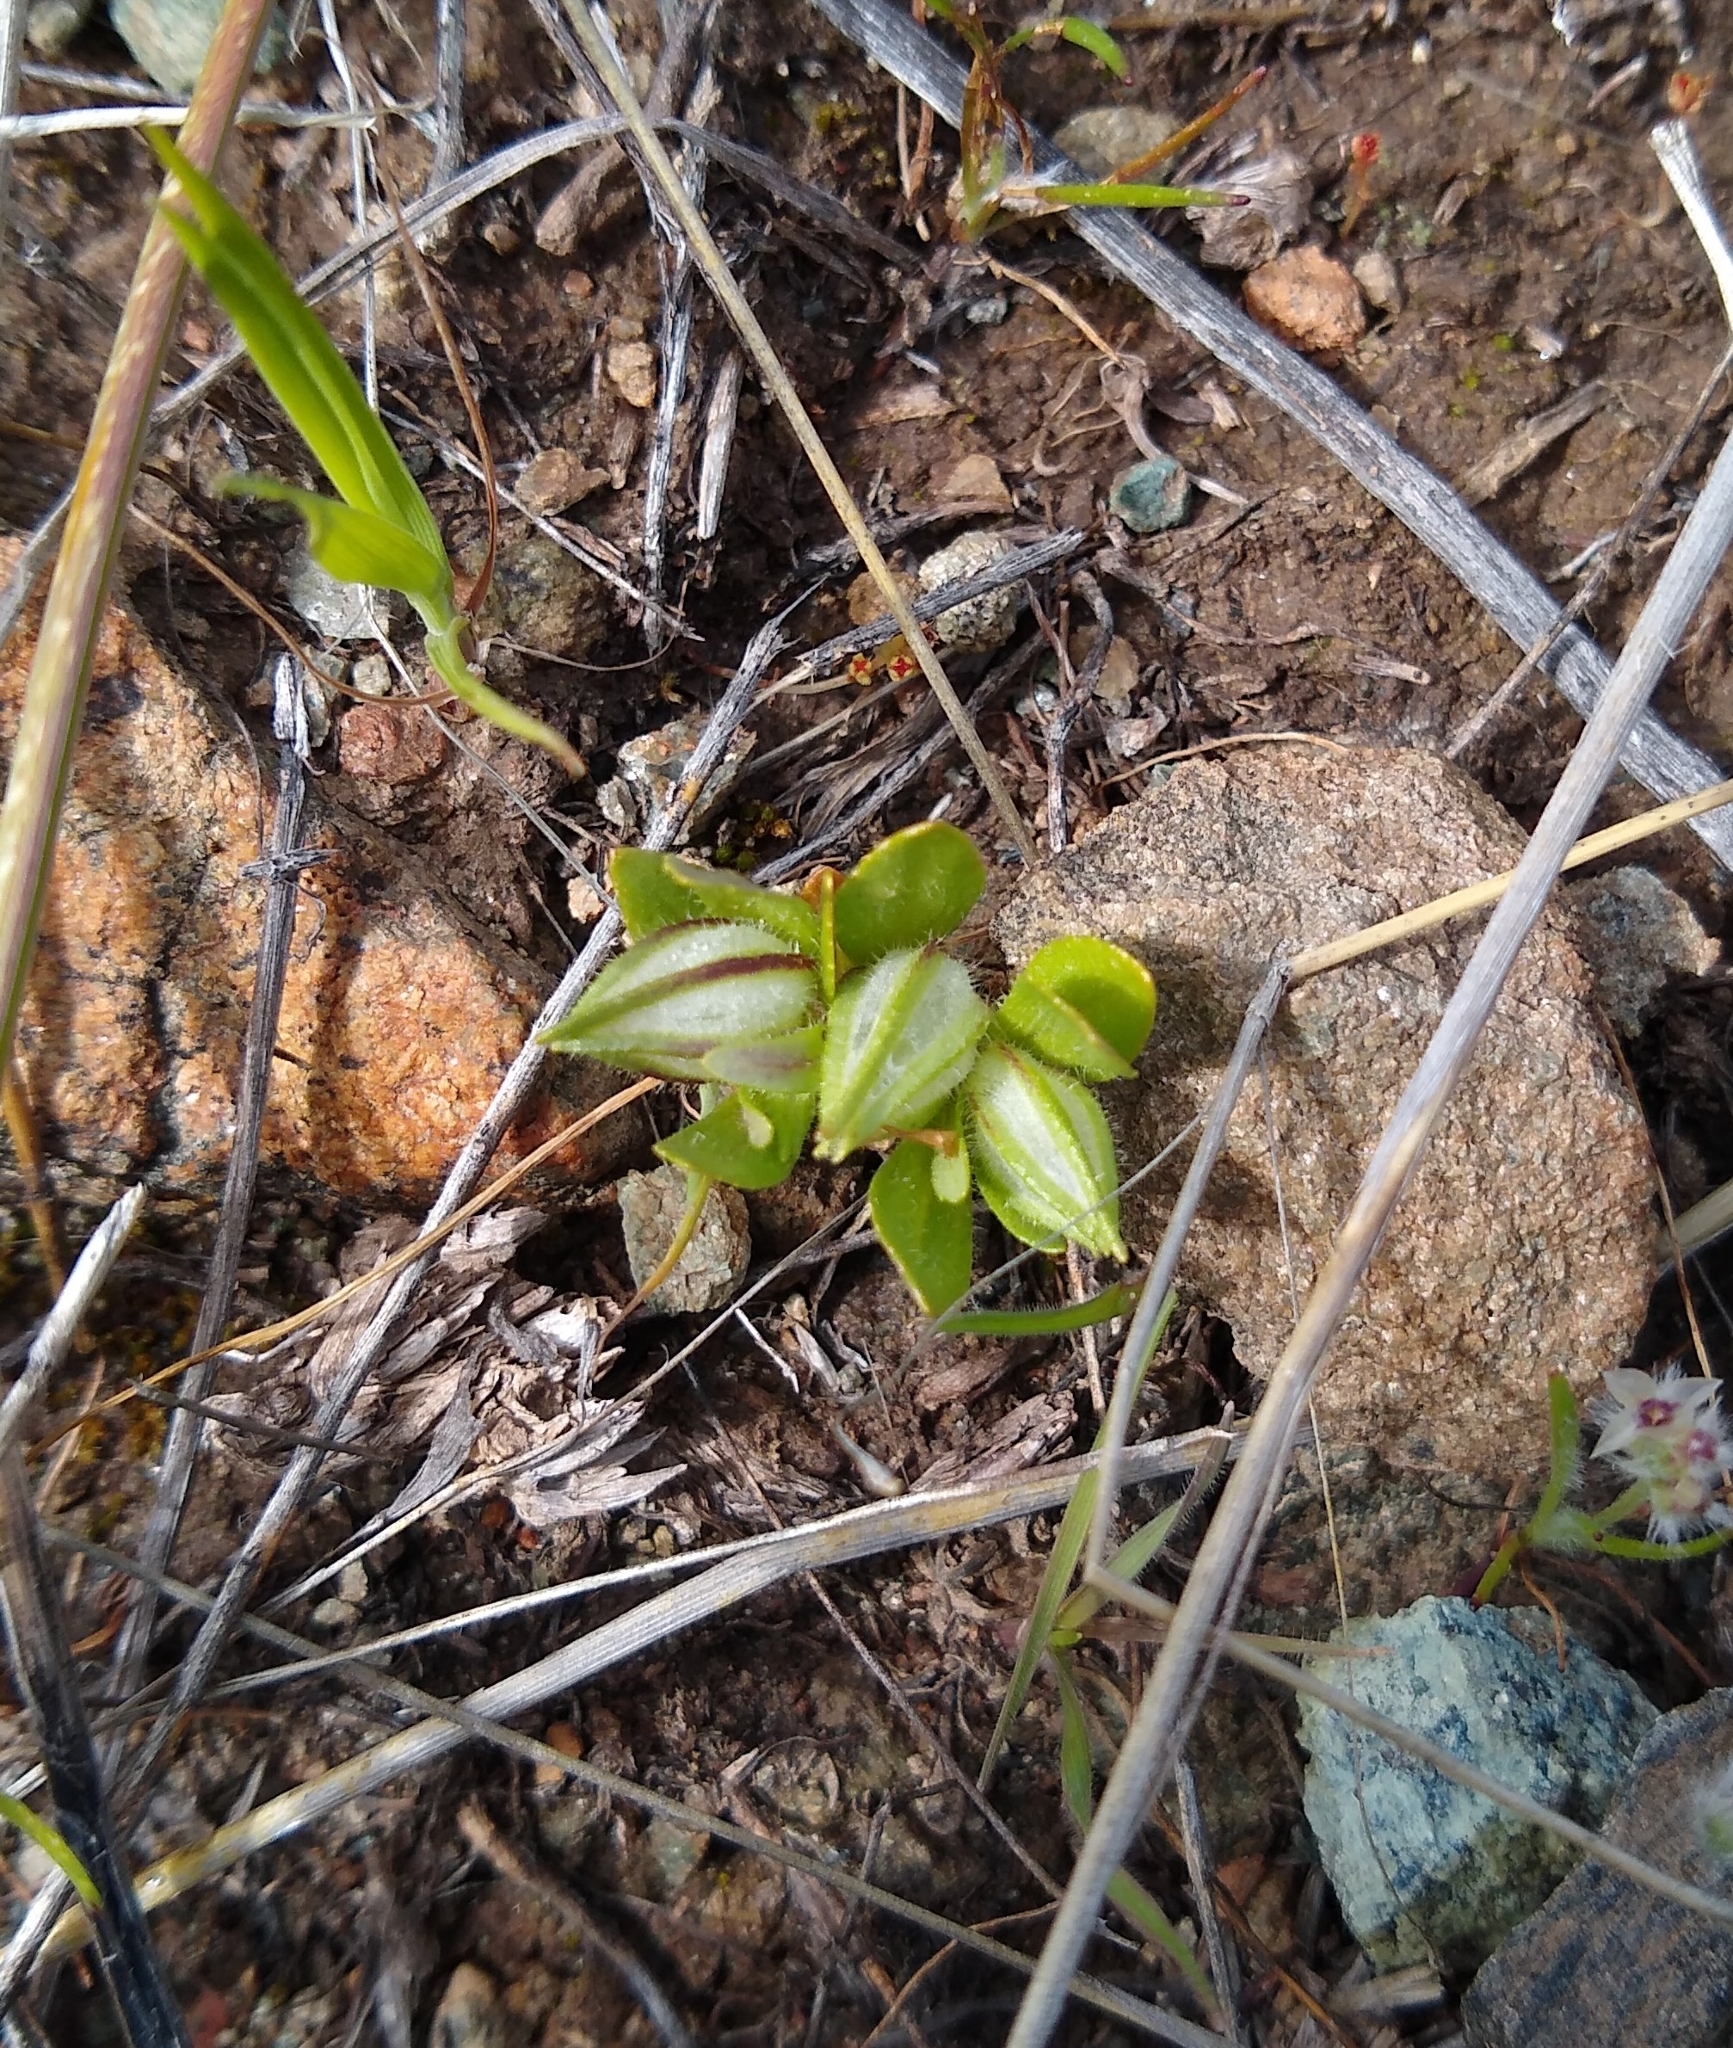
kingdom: Plantae
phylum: Tracheophyta
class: Magnoliopsida
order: Lamiales
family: Phrymaceae
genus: Diplacus
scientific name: Diplacus douglasii
